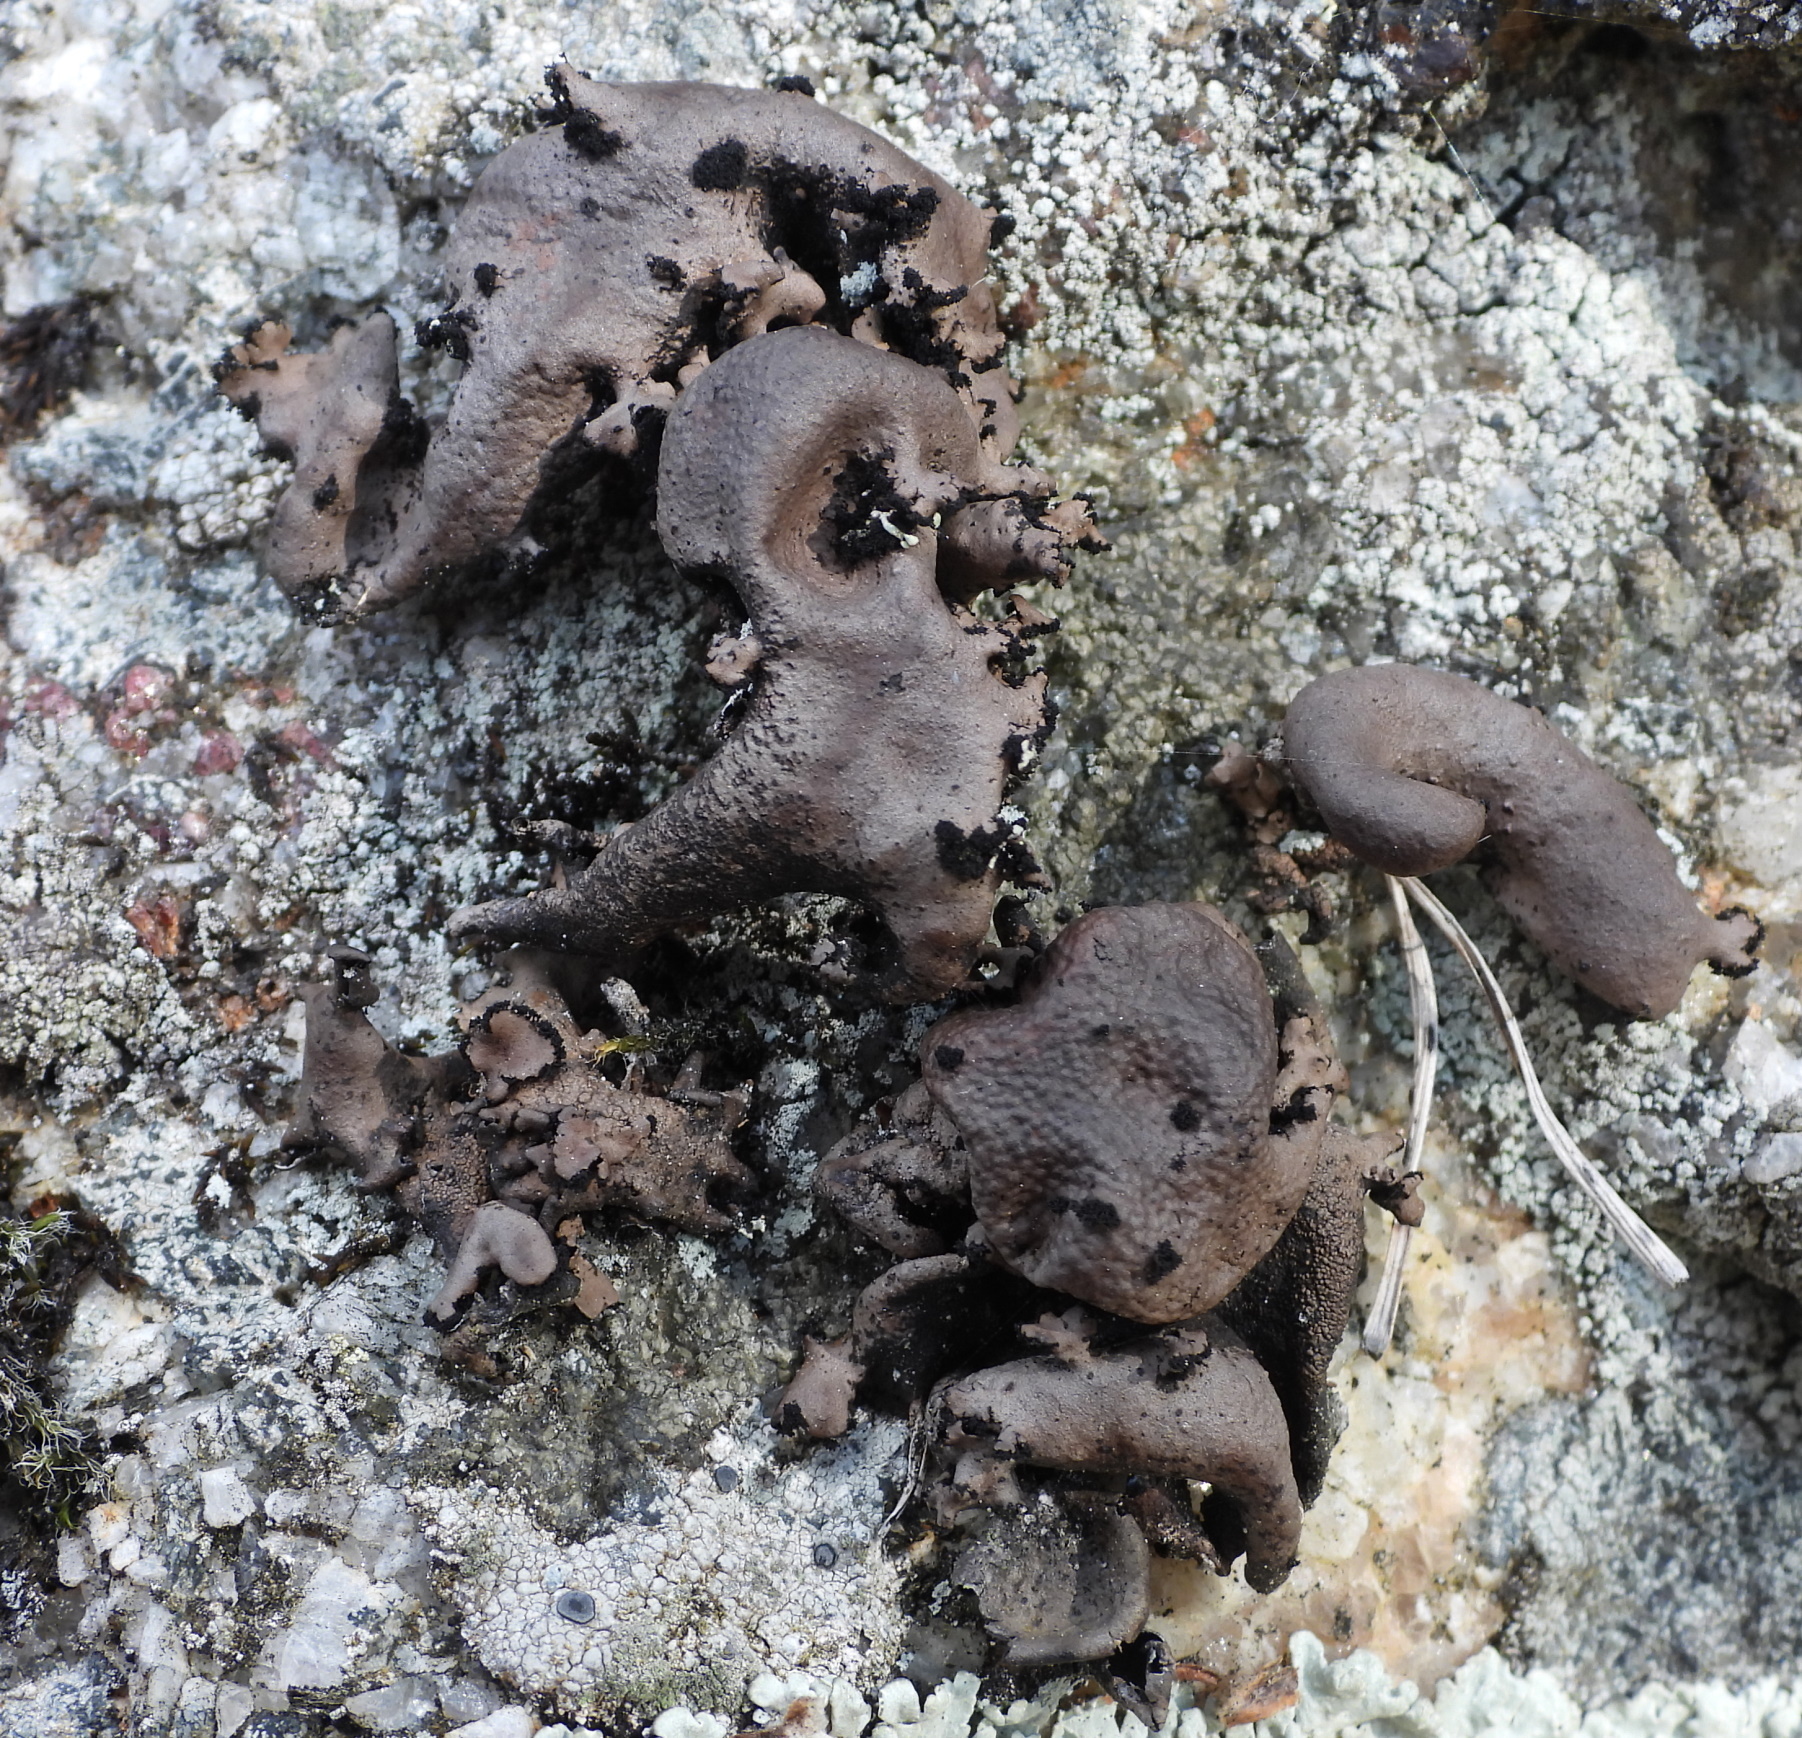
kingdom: Fungi
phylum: Ascomycota
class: Lecanoromycetes
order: Umbilicariales
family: Umbilicariaceae
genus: Umbilicaria
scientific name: Umbilicaria polyrrhiza
